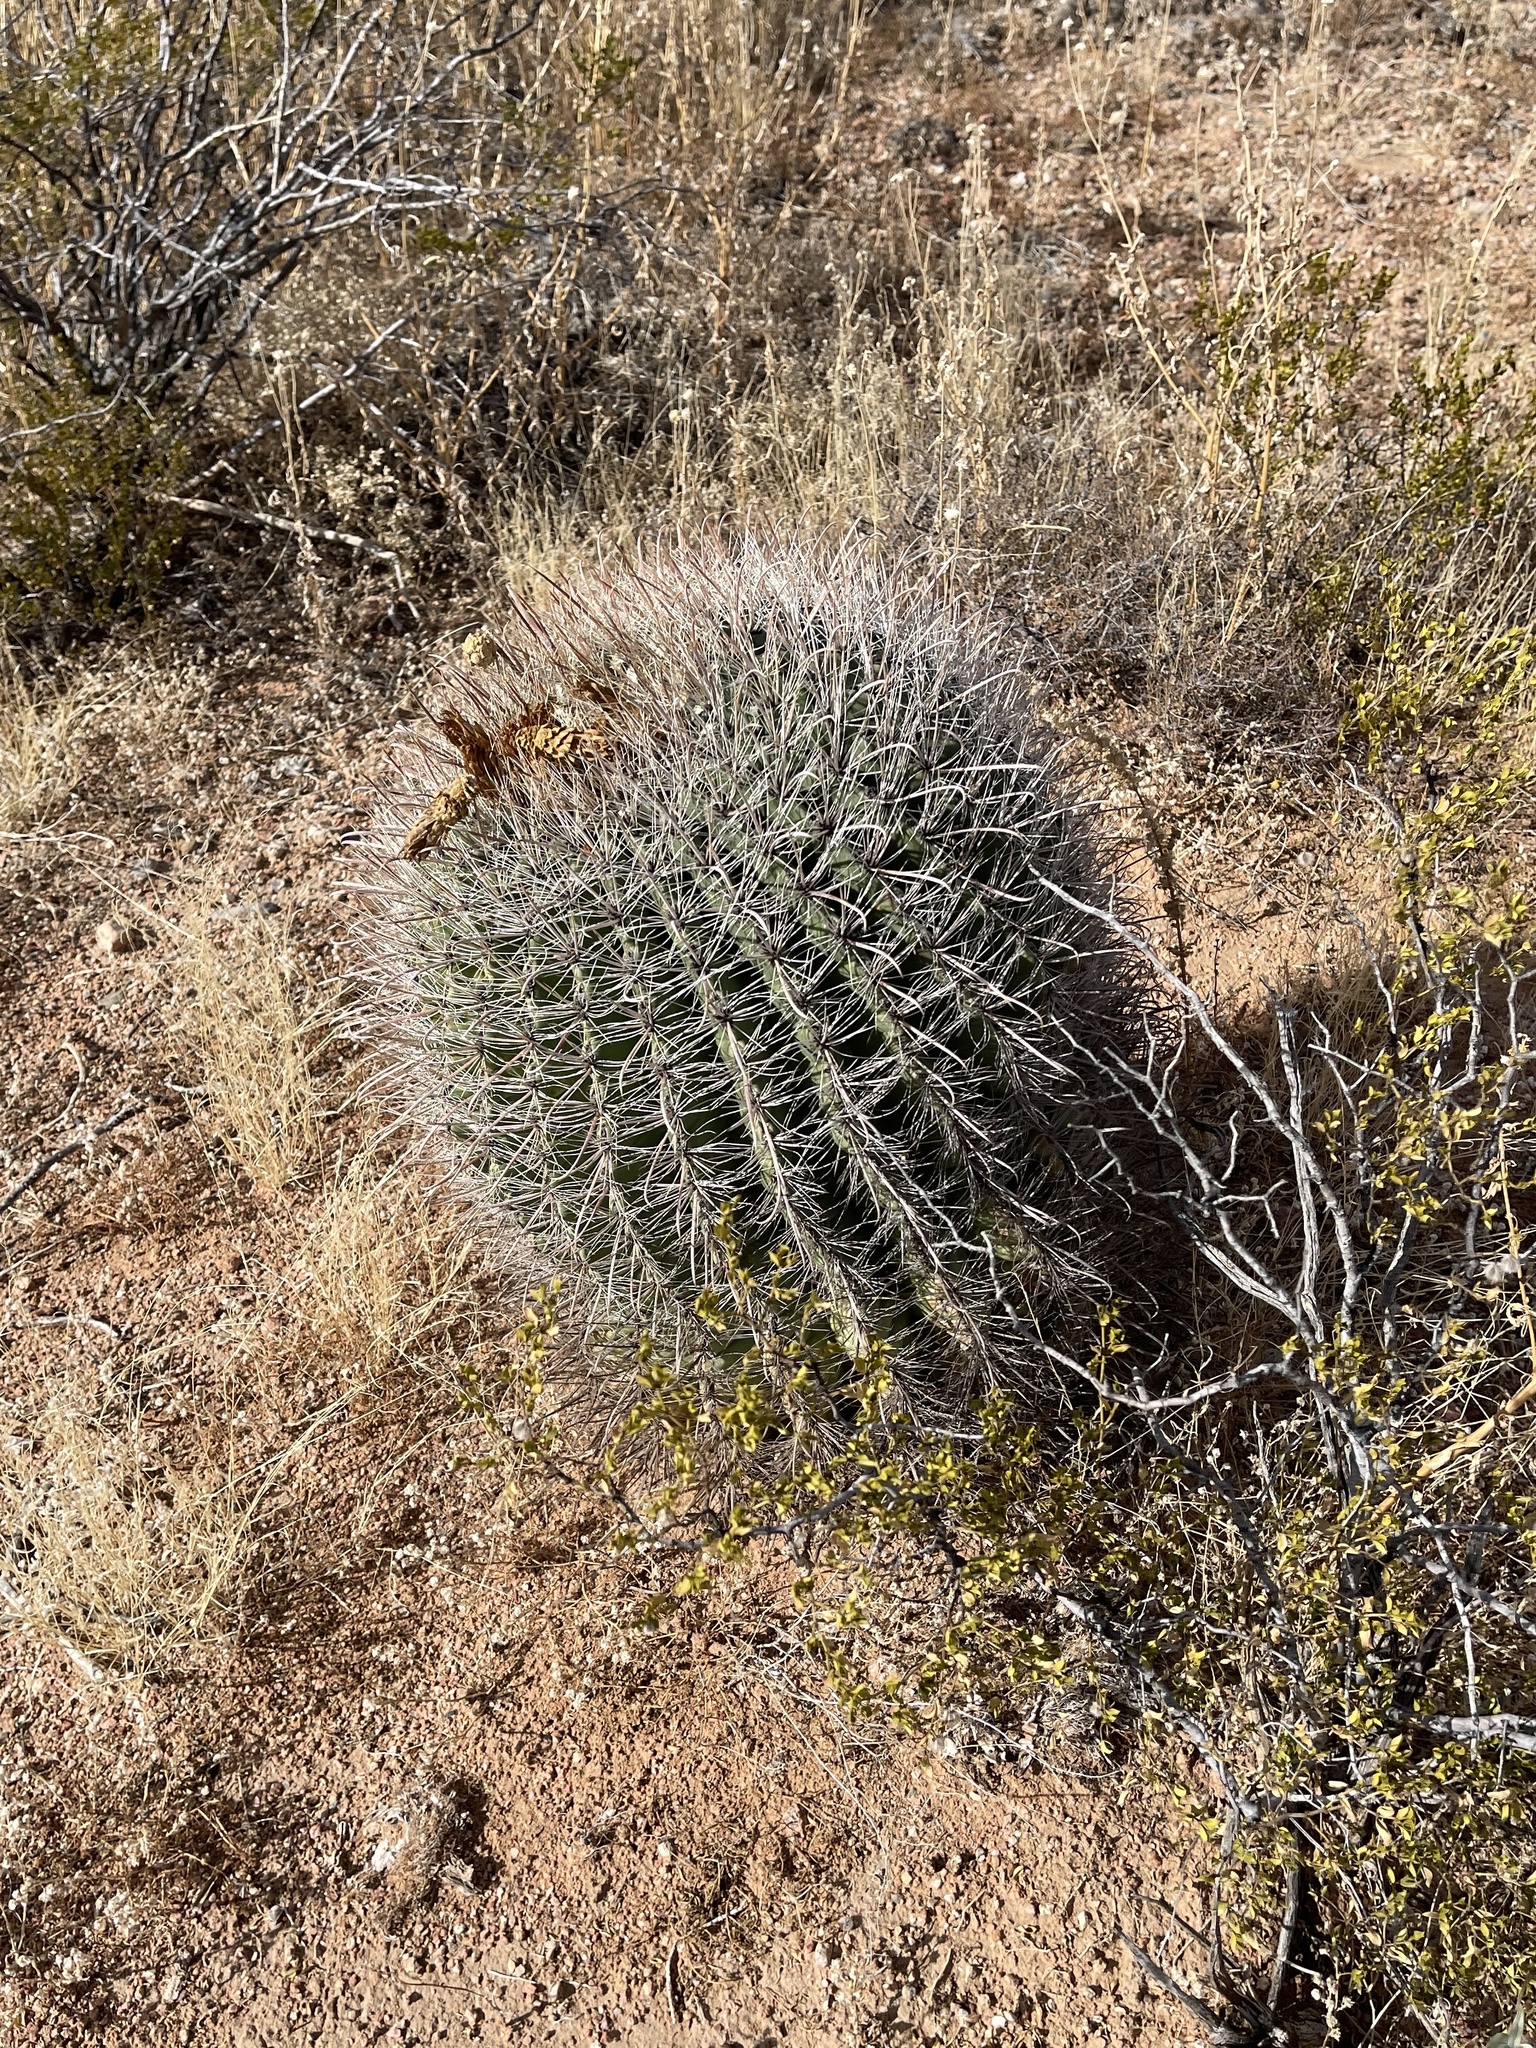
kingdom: Plantae
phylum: Tracheophyta
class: Magnoliopsida
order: Caryophyllales
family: Cactaceae
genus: Ferocactus
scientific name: Ferocactus wislizeni
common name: Candy barrel cactus
